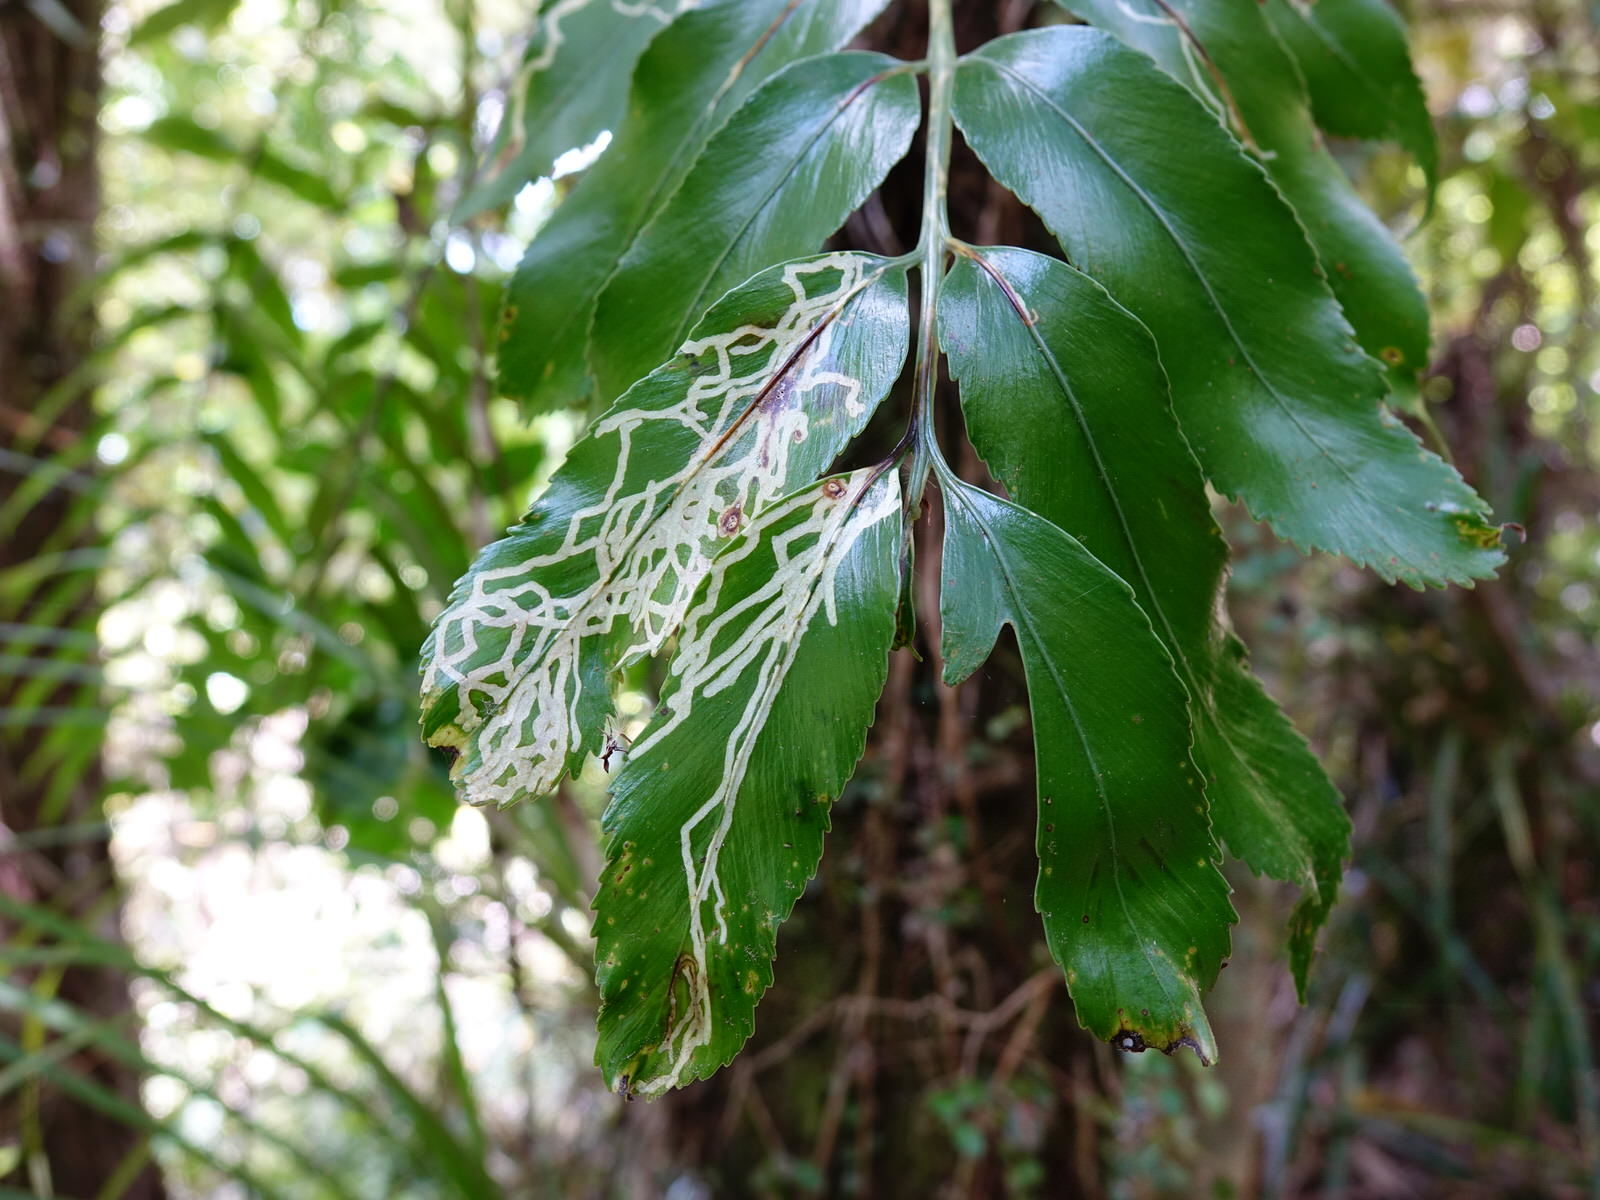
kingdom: Plantae
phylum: Tracheophyta
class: Polypodiopsida
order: Polypodiales
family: Aspleniaceae
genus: Asplenium
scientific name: Asplenium oblongifolium
